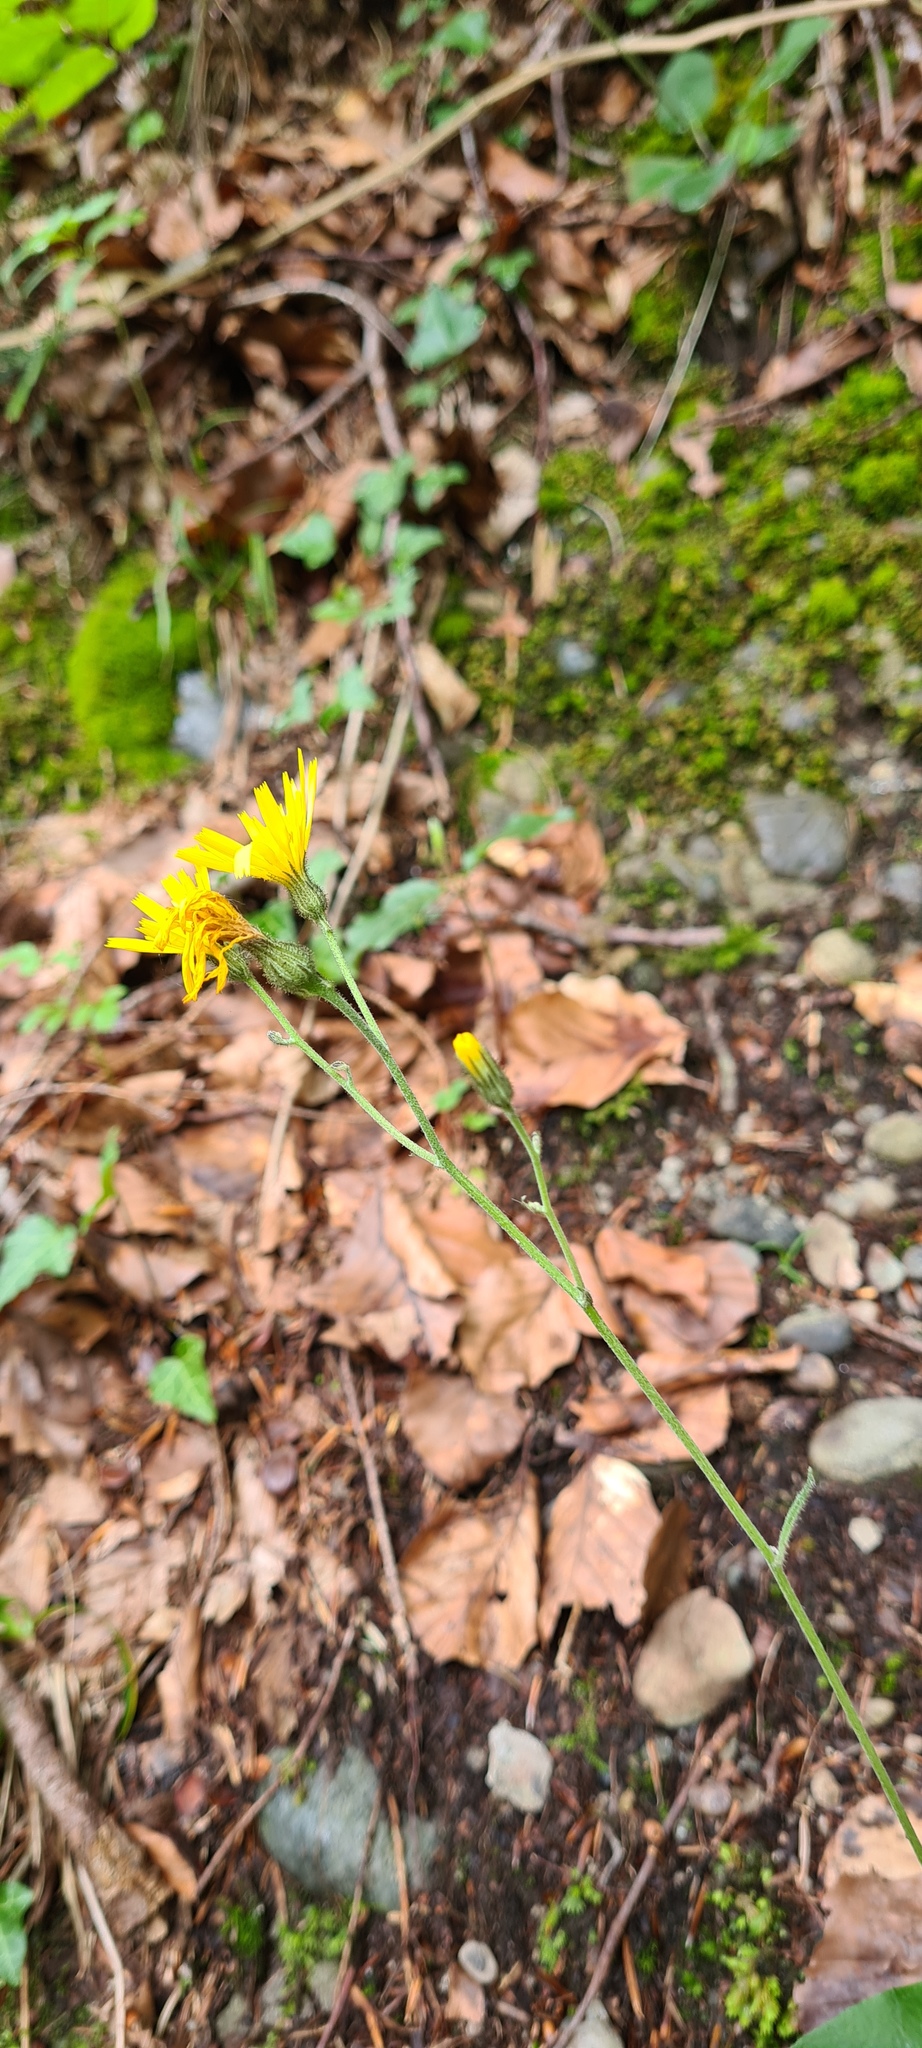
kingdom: Plantae
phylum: Tracheophyta
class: Magnoliopsida
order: Asterales
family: Asteraceae
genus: Hieracium
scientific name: Hieracium murorum
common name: Wall hawkweed
